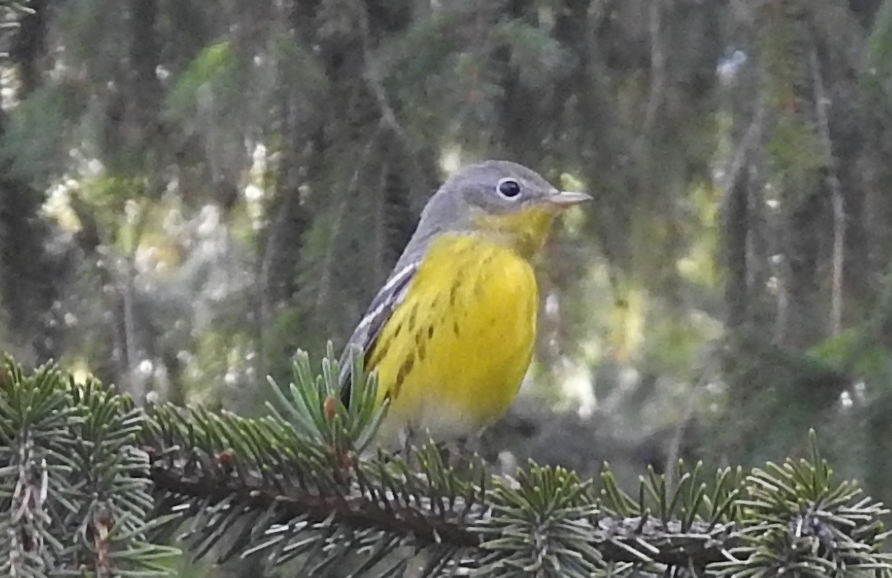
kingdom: Animalia
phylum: Chordata
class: Aves
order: Passeriformes
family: Parulidae
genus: Setophaga
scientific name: Setophaga magnolia
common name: Magnolia warbler
